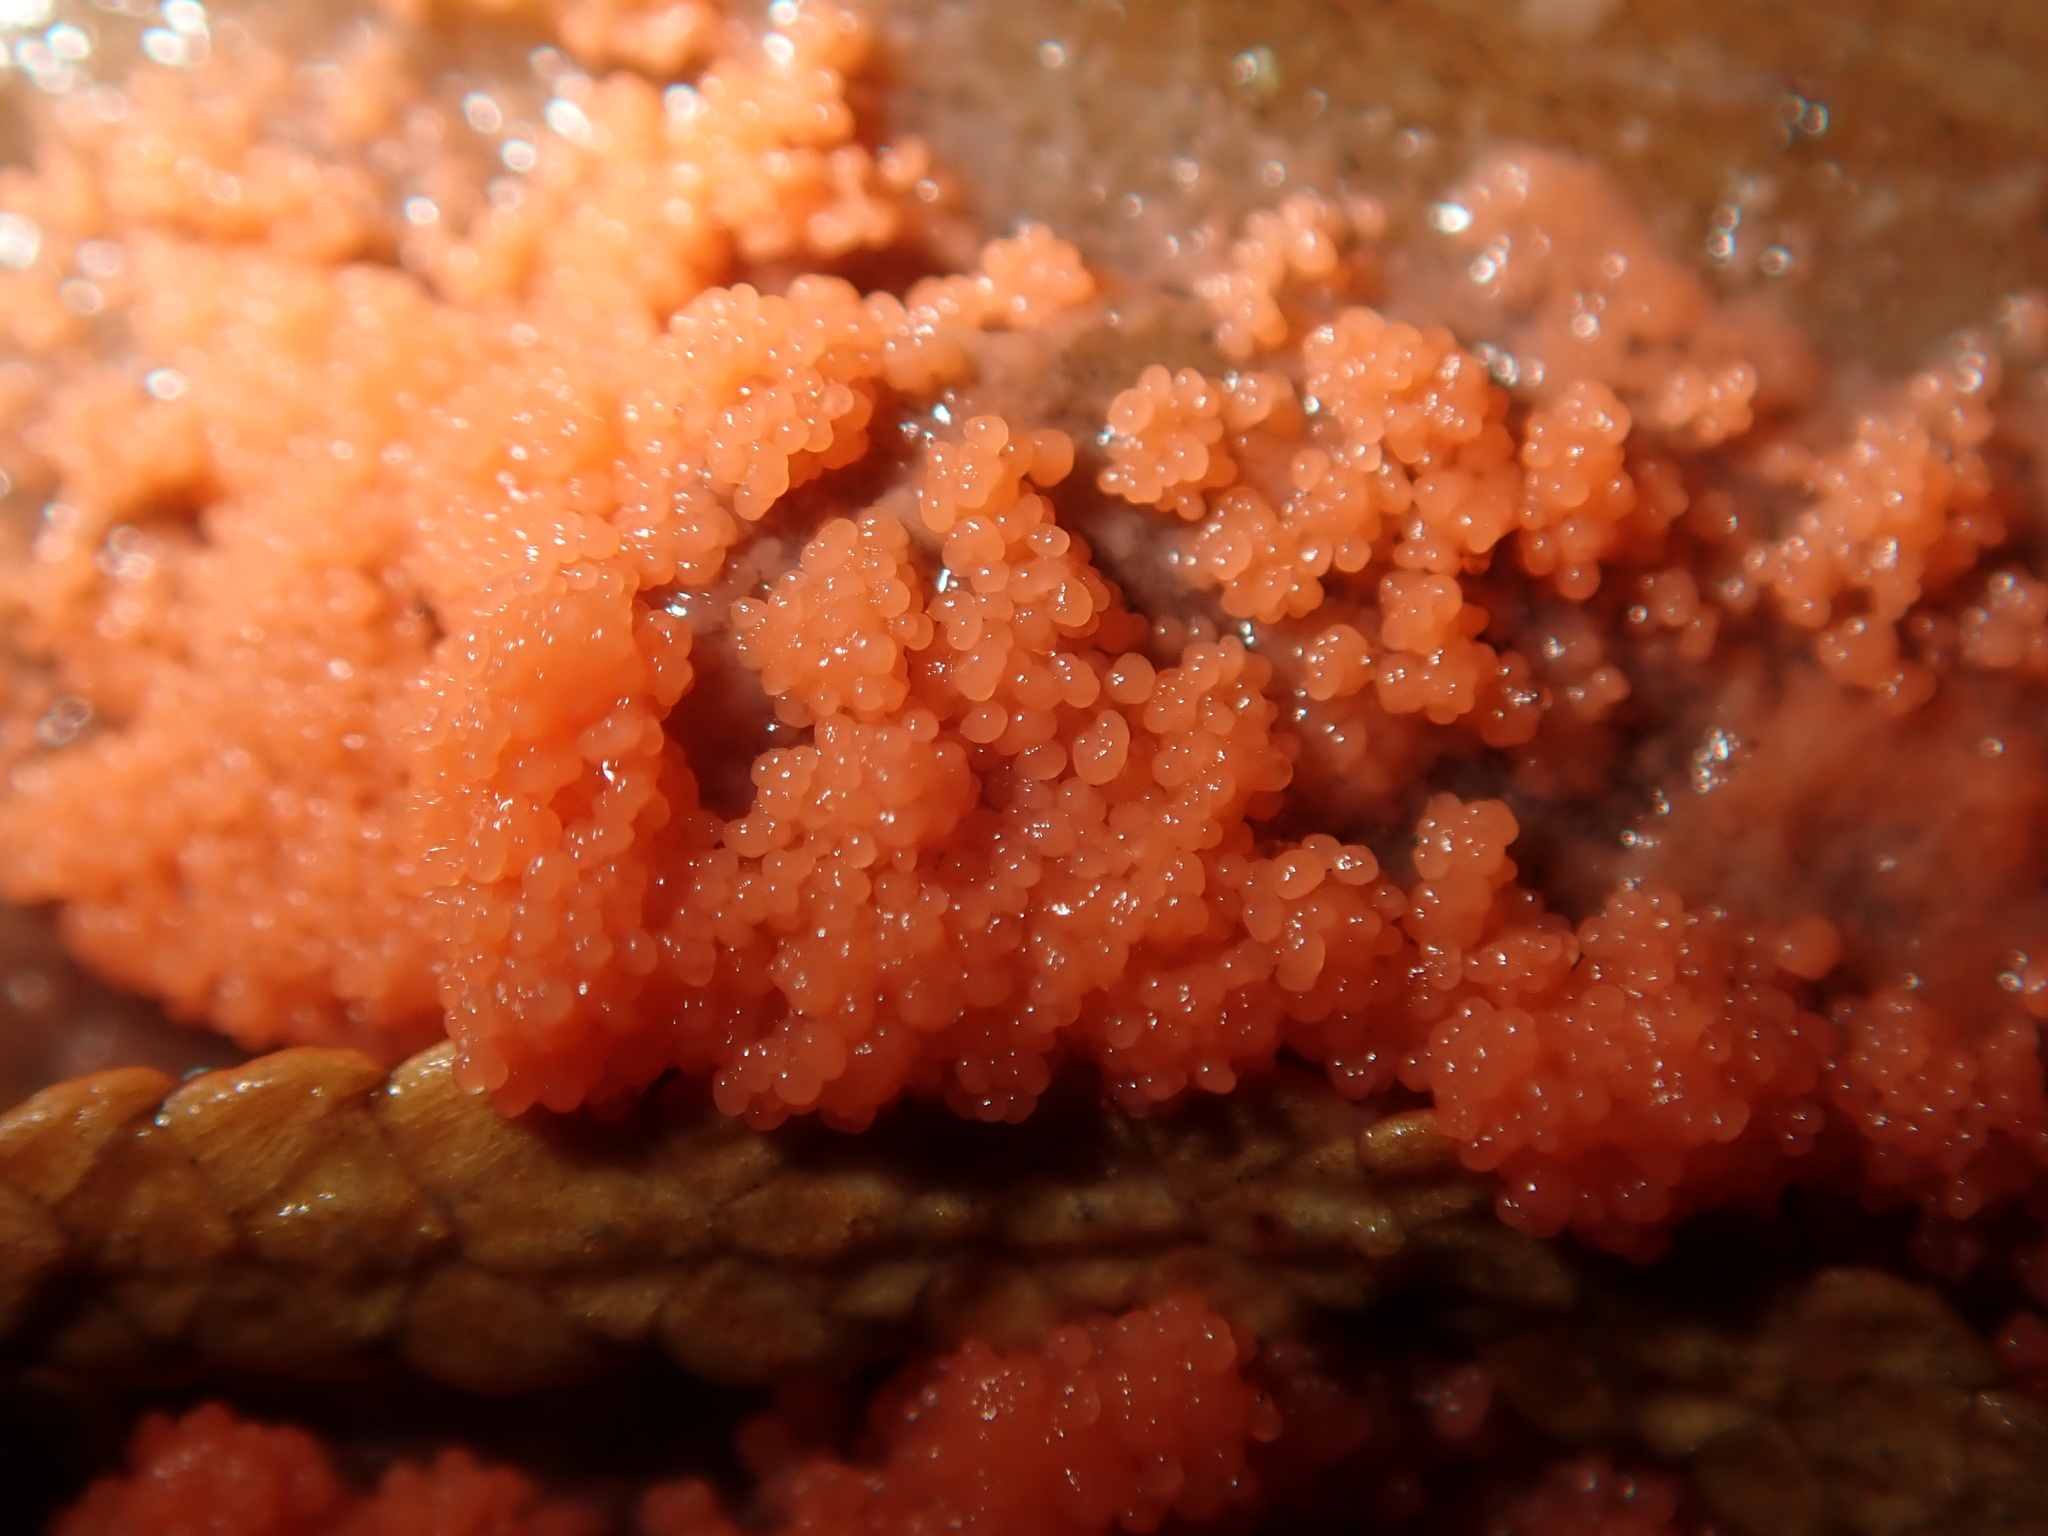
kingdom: Protozoa
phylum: Mycetozoa
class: Myxomycetes
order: Cribrariales
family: Tubiferaceae
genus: Tubifera
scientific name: Tubifera ferruginosa
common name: Red raspberry slime mold
